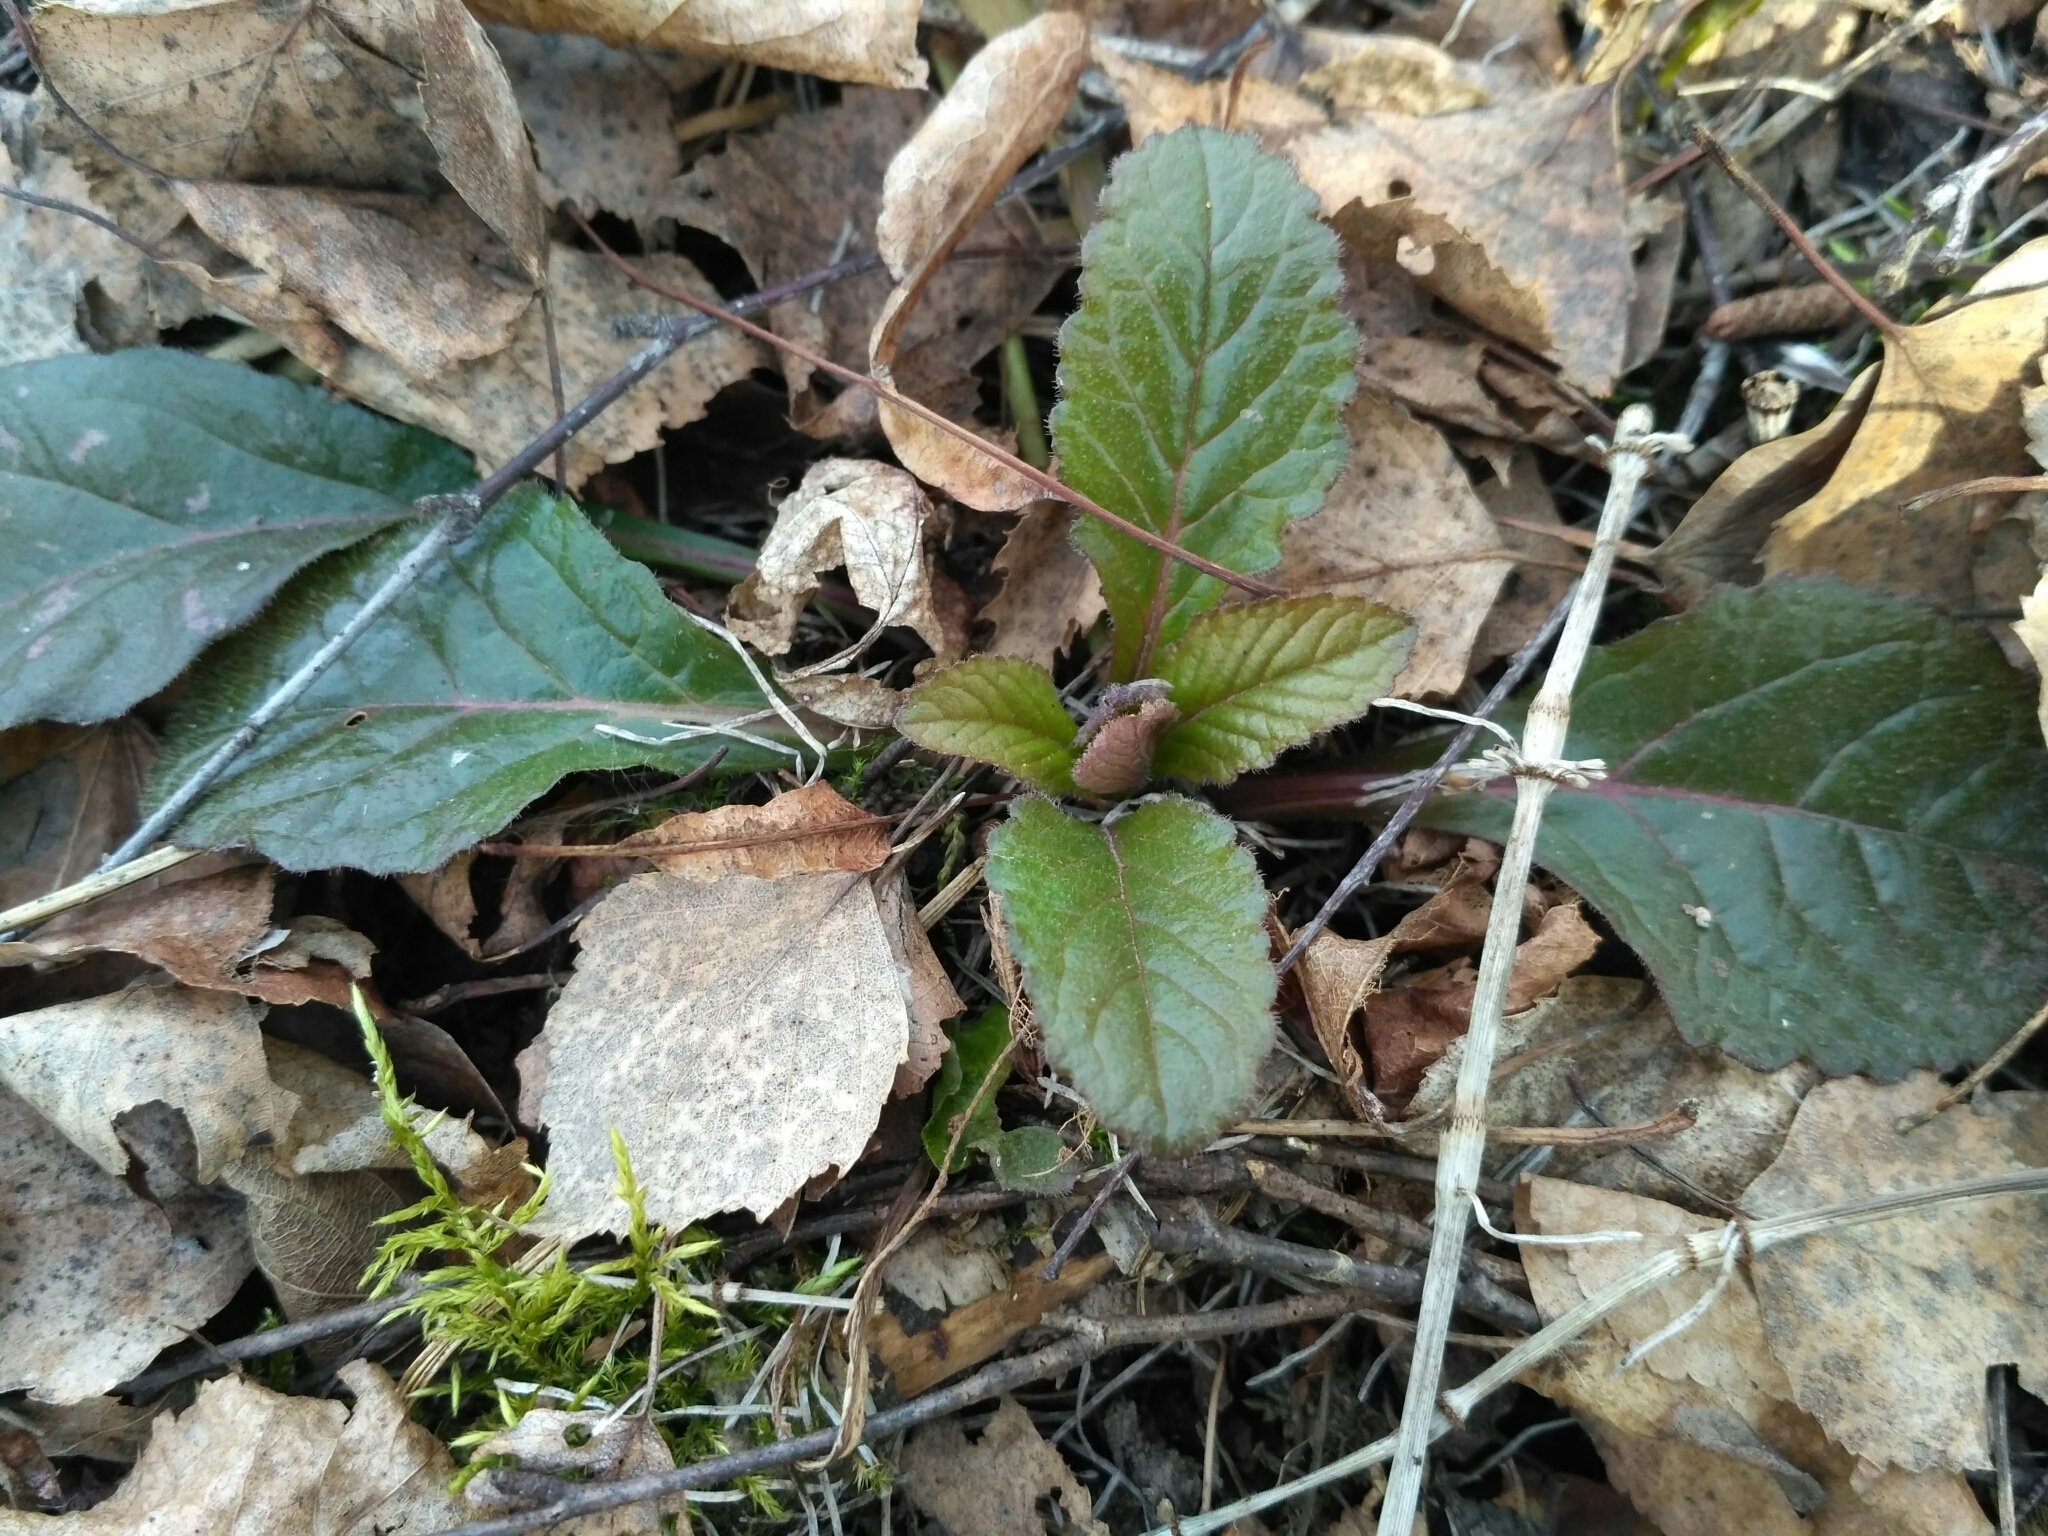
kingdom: Plantae
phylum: Tracheophyta
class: Magnoliopsida
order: Lamiales
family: Lamiaceae
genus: Ajuga
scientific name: Ajuga reptans
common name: Bugle
